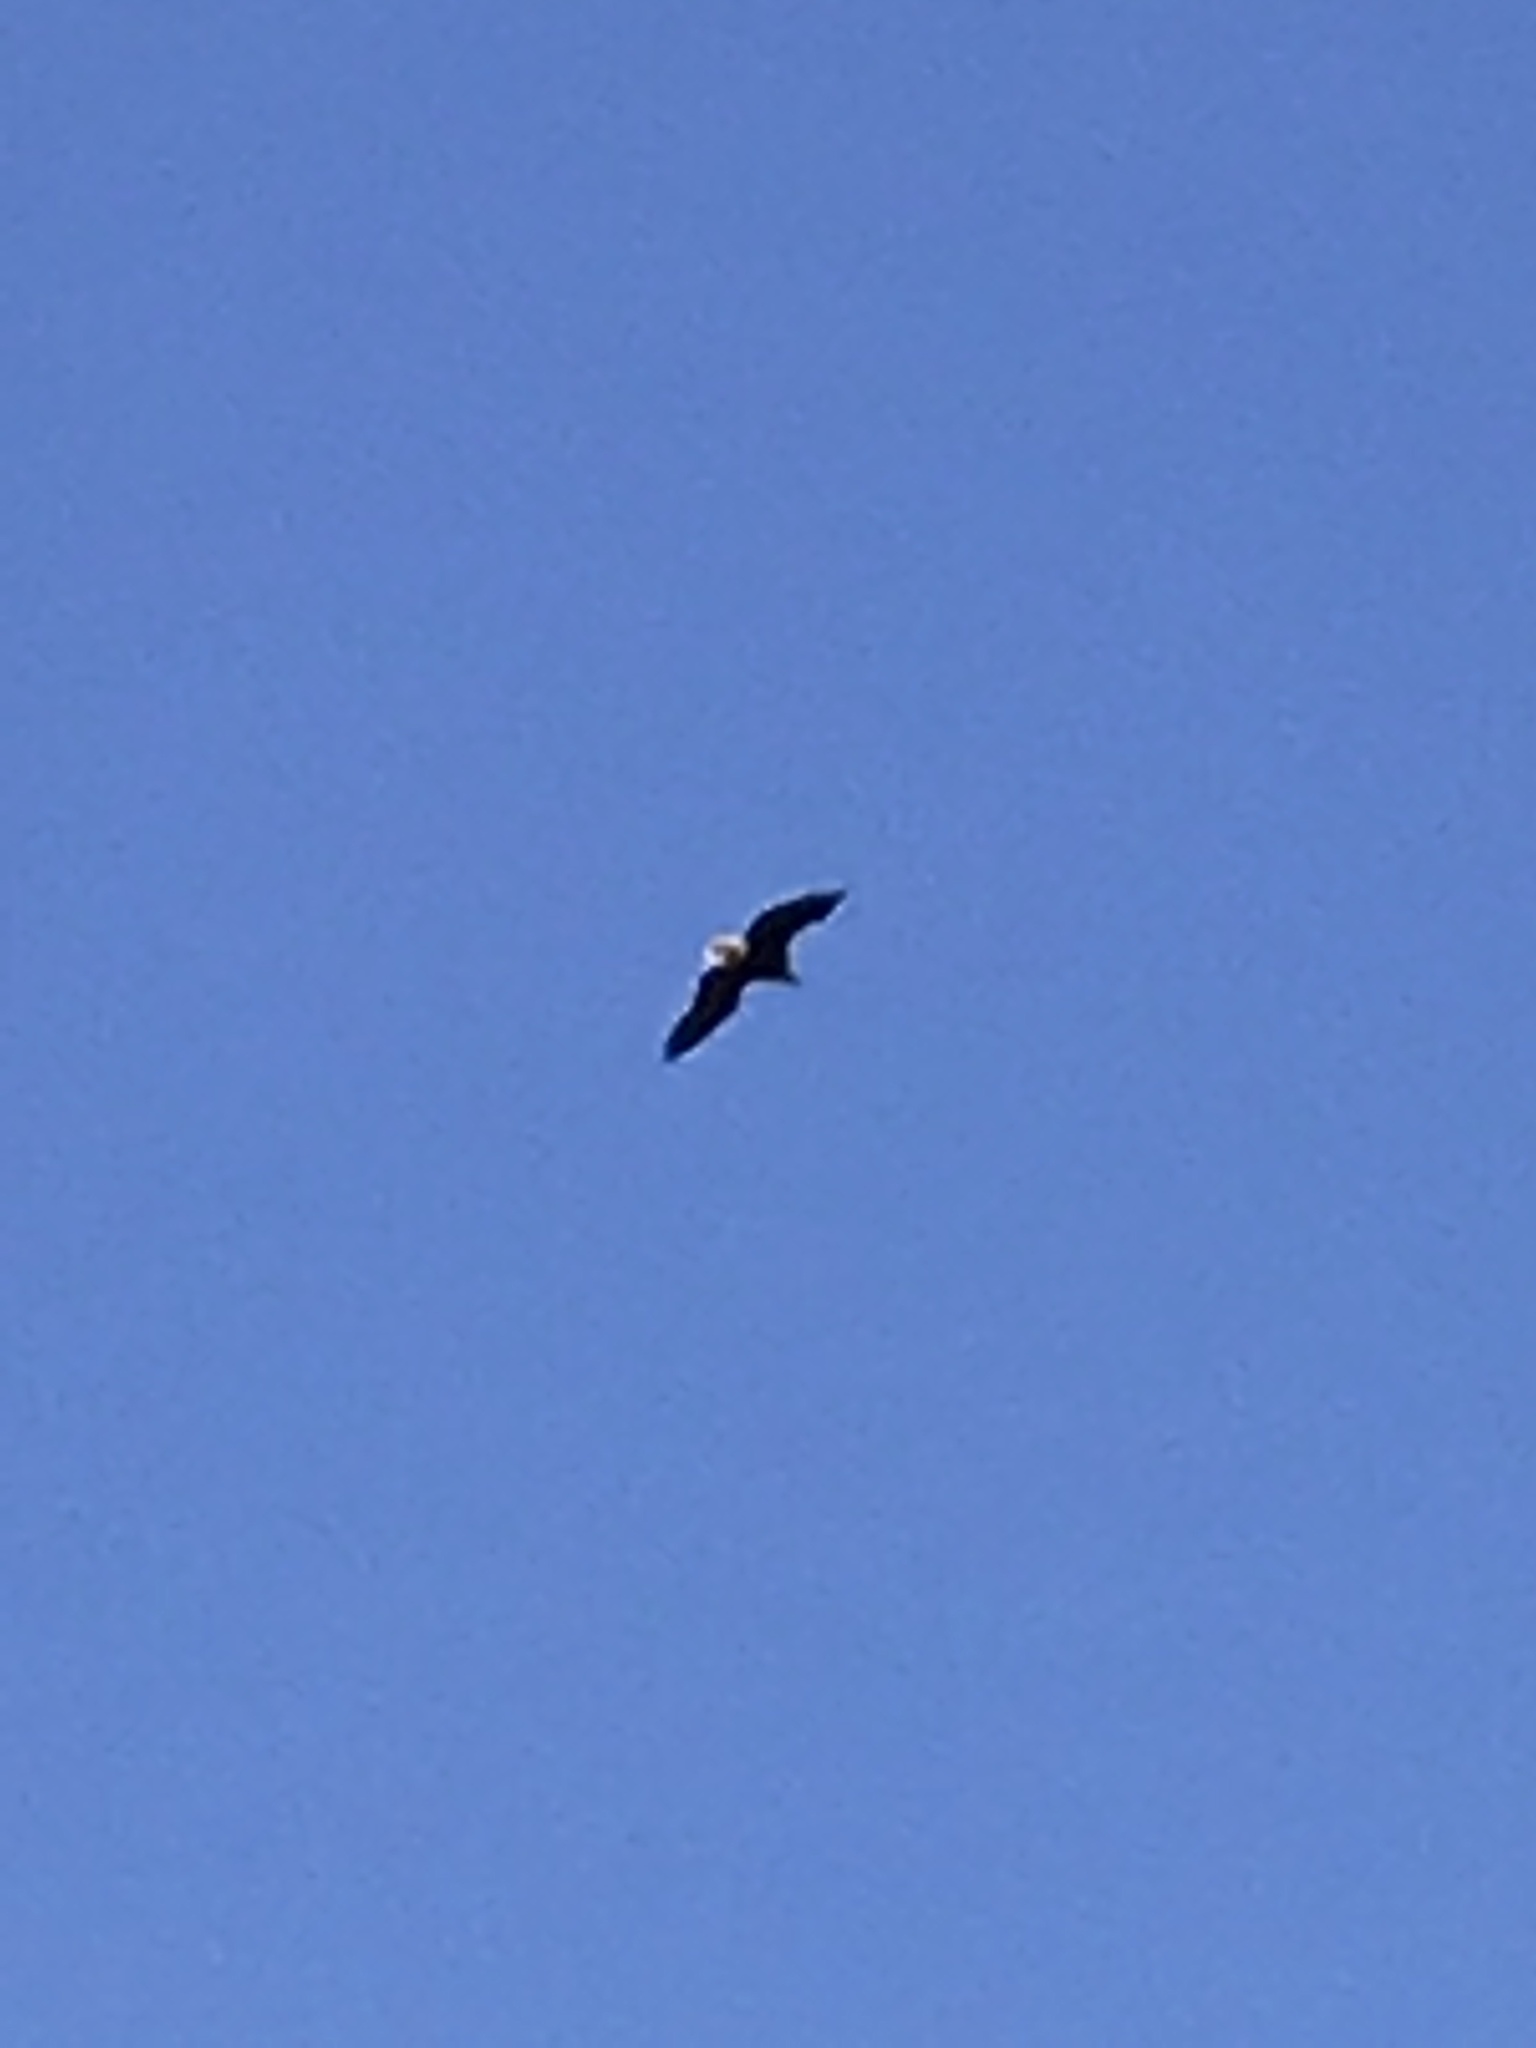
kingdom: Animalia
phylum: Chordata
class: Aves
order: Accipitriformes
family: Accipitridae
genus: Haliaeetus
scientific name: Haliaeetus leucocephalus
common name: Bald eagle
